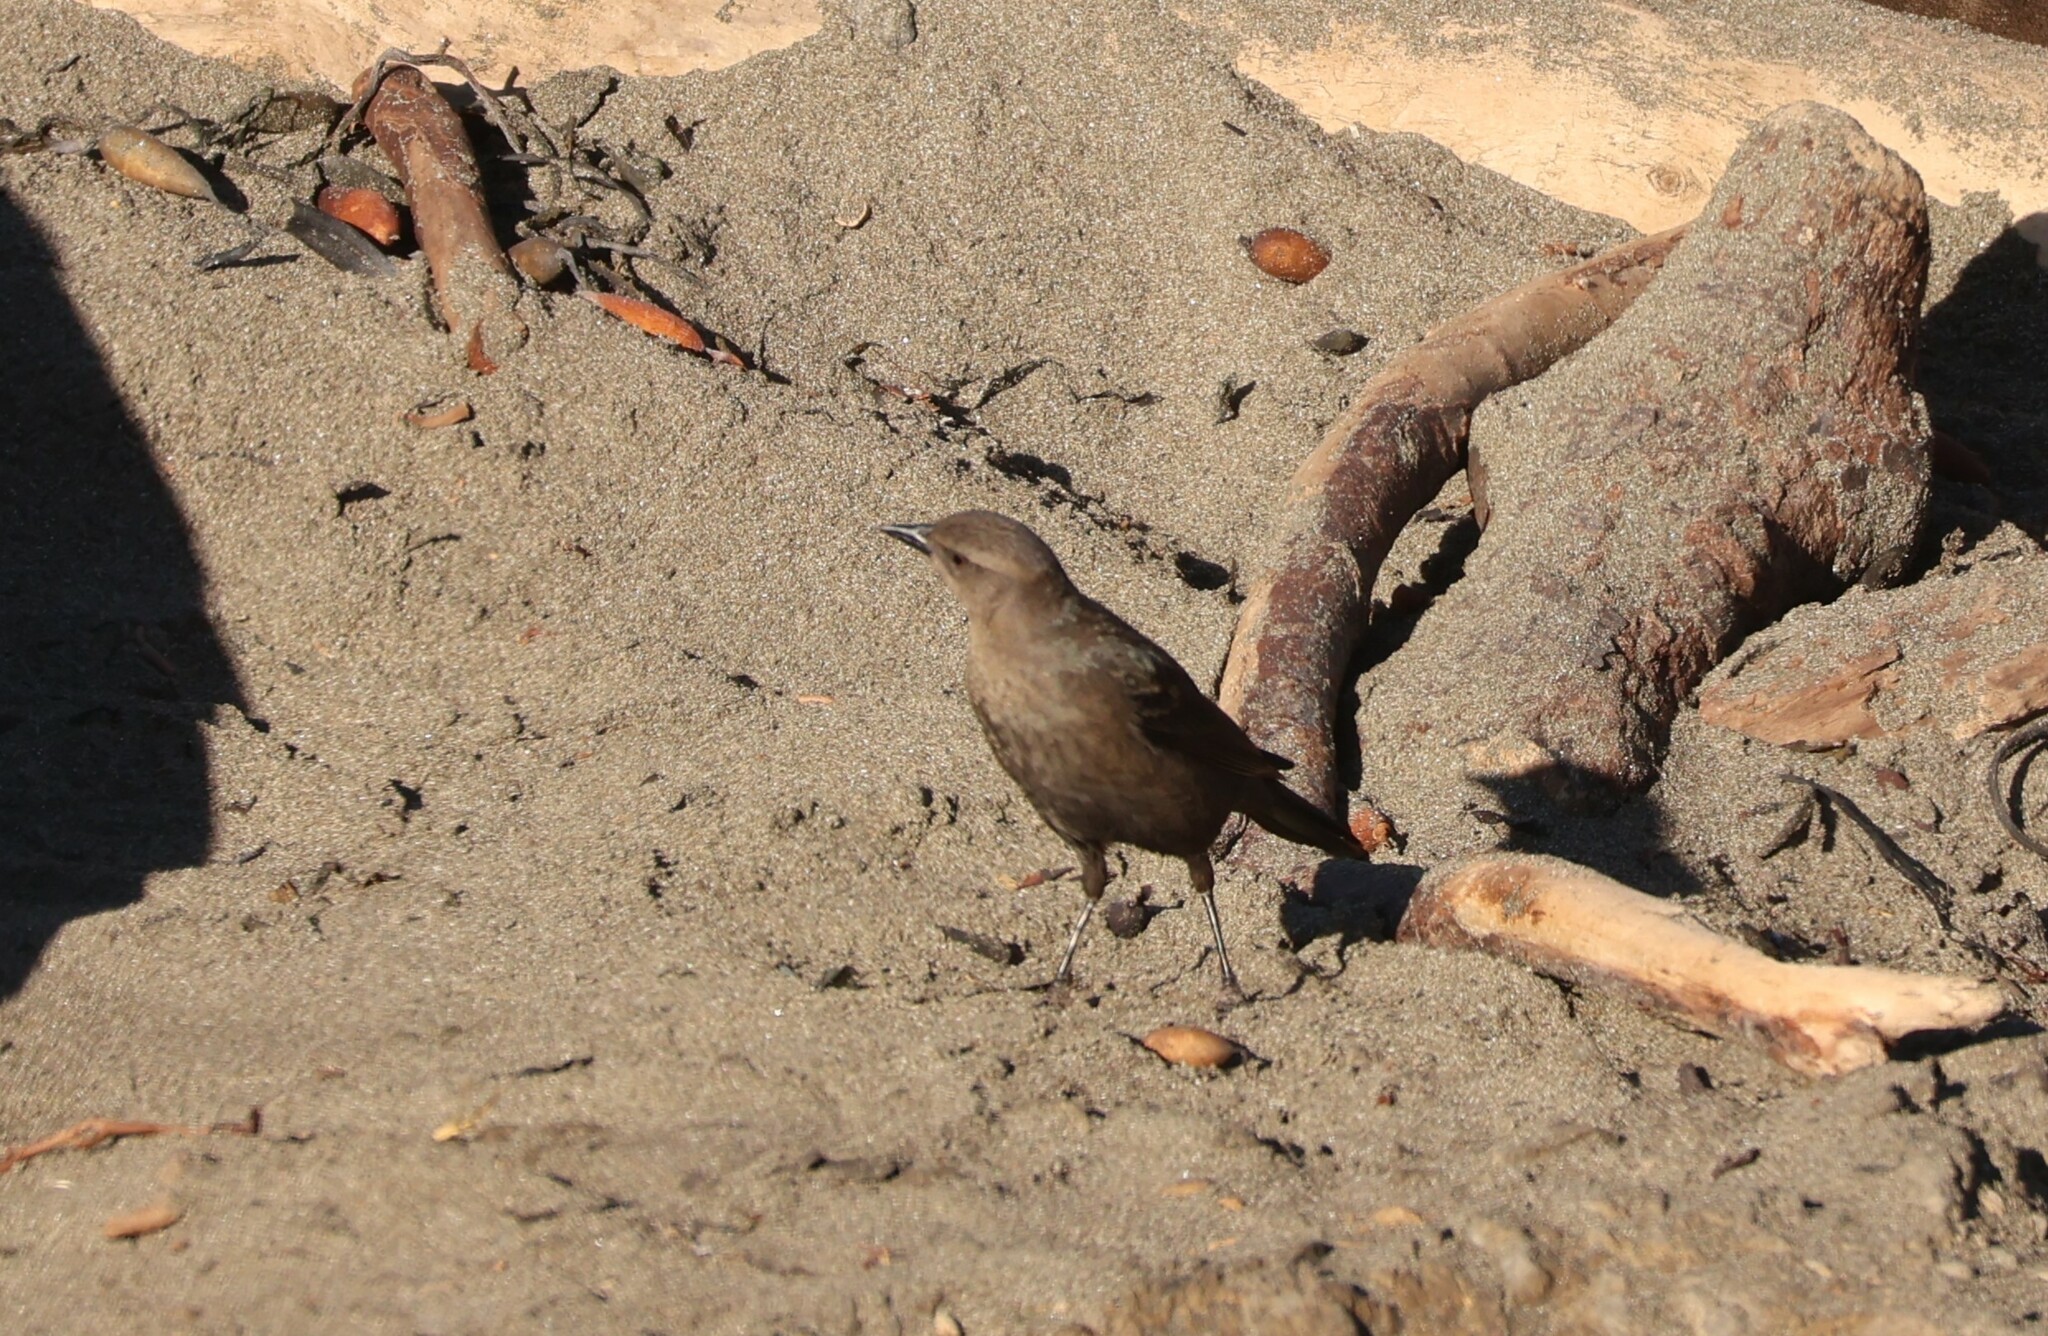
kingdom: Animalia
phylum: Chordata
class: Aves
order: Passeriformes
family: Icteridae
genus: Euphagus
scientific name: Euphagus cyanocephalus
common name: Brewer's blackbird
